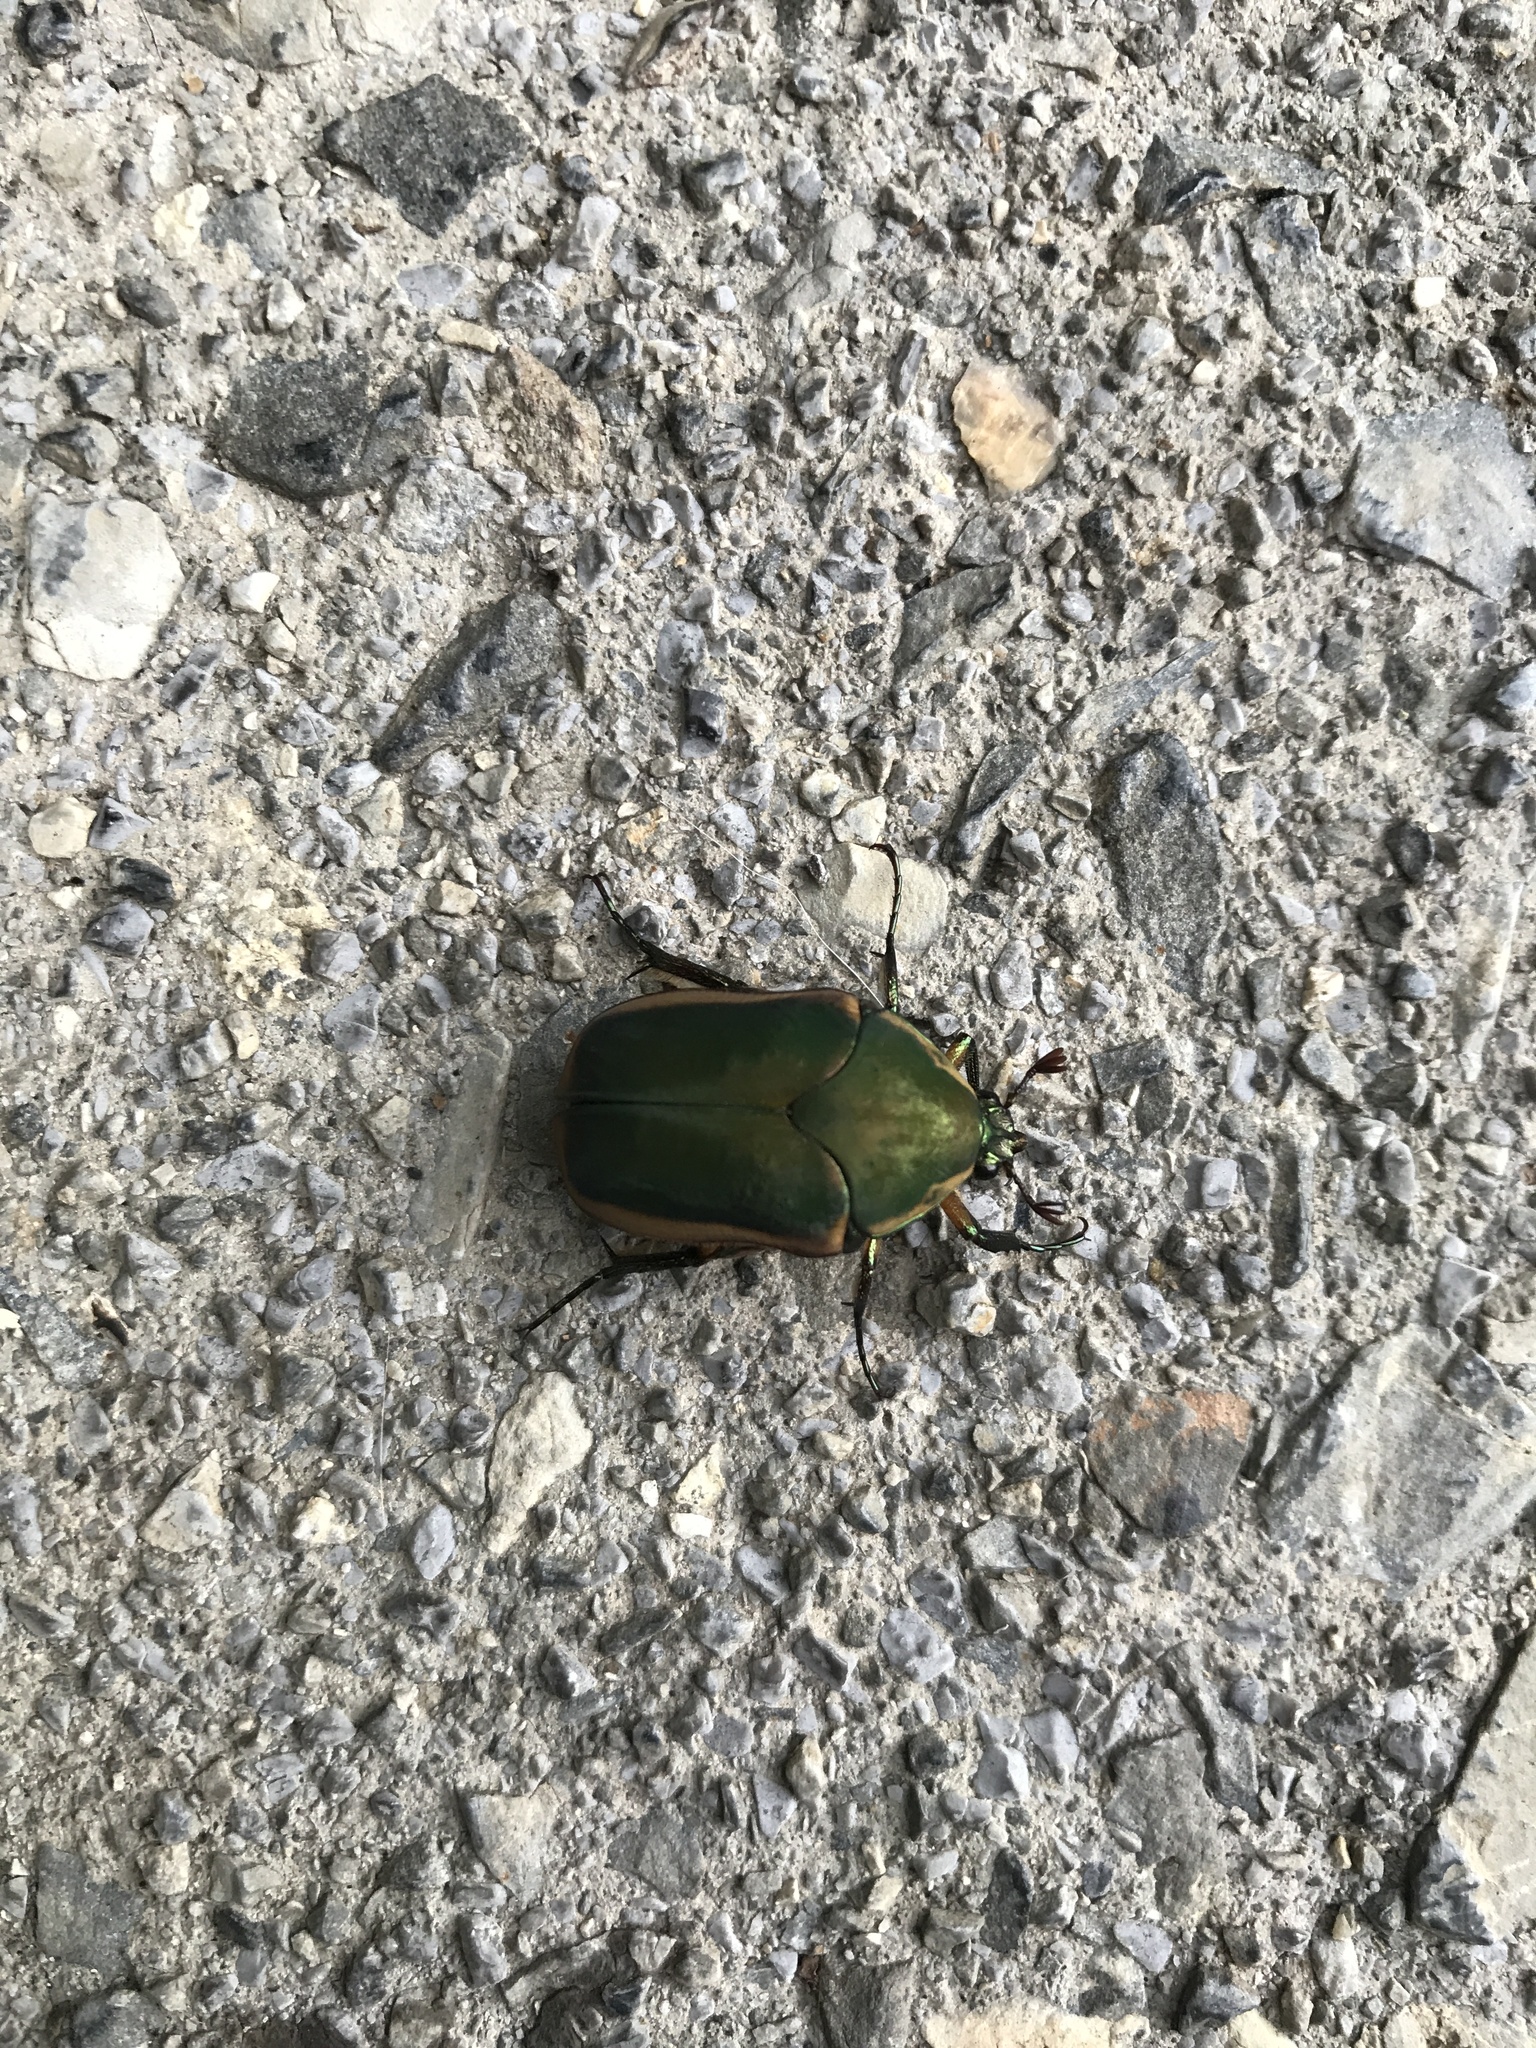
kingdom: Animalia
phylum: Arthropoda
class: Insecta
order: Coleoptera
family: Scarabaeidae
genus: Cotinis
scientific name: Cotinis nitida
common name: Common green june beetle
